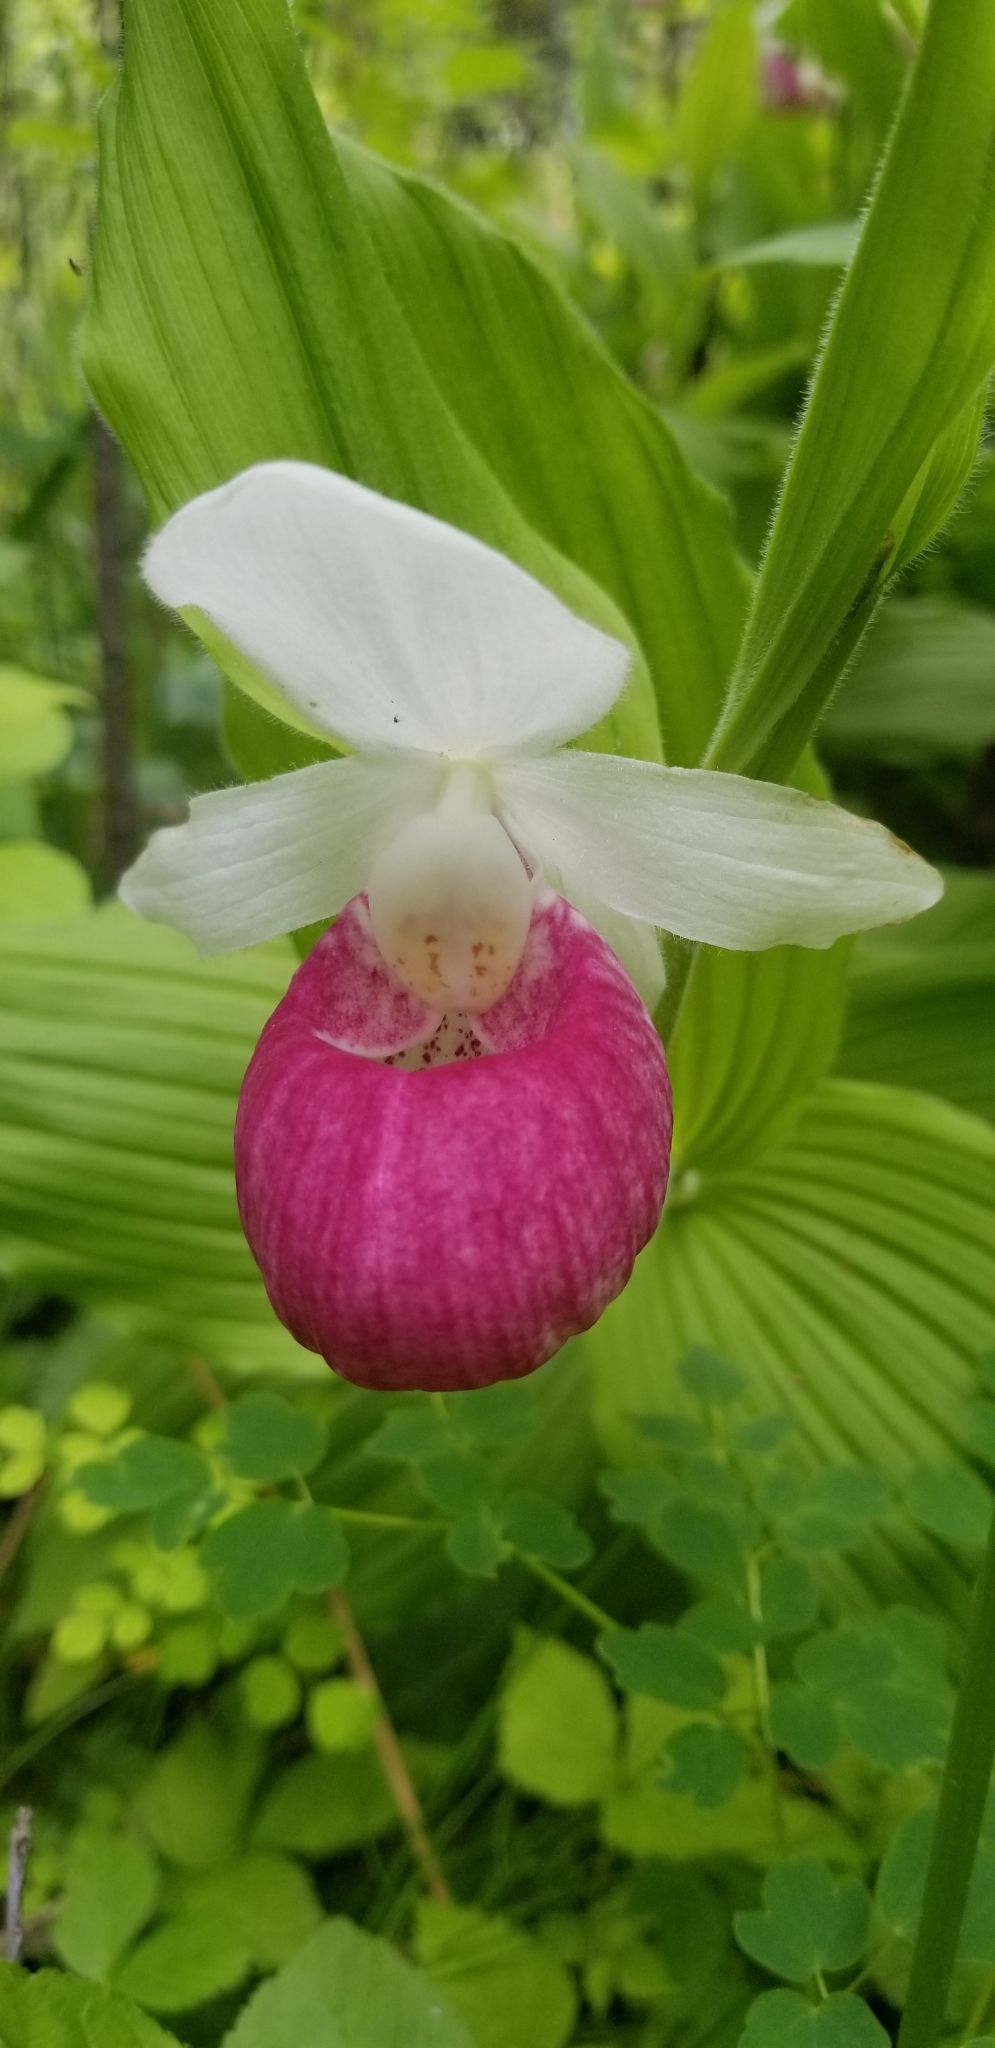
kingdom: Plantae
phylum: Tracheophyta
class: Liliopsida
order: Asparagales
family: Orchidaceae
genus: Cypripedium
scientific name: Cypripedium reginae
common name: Queen lady's-slipper
